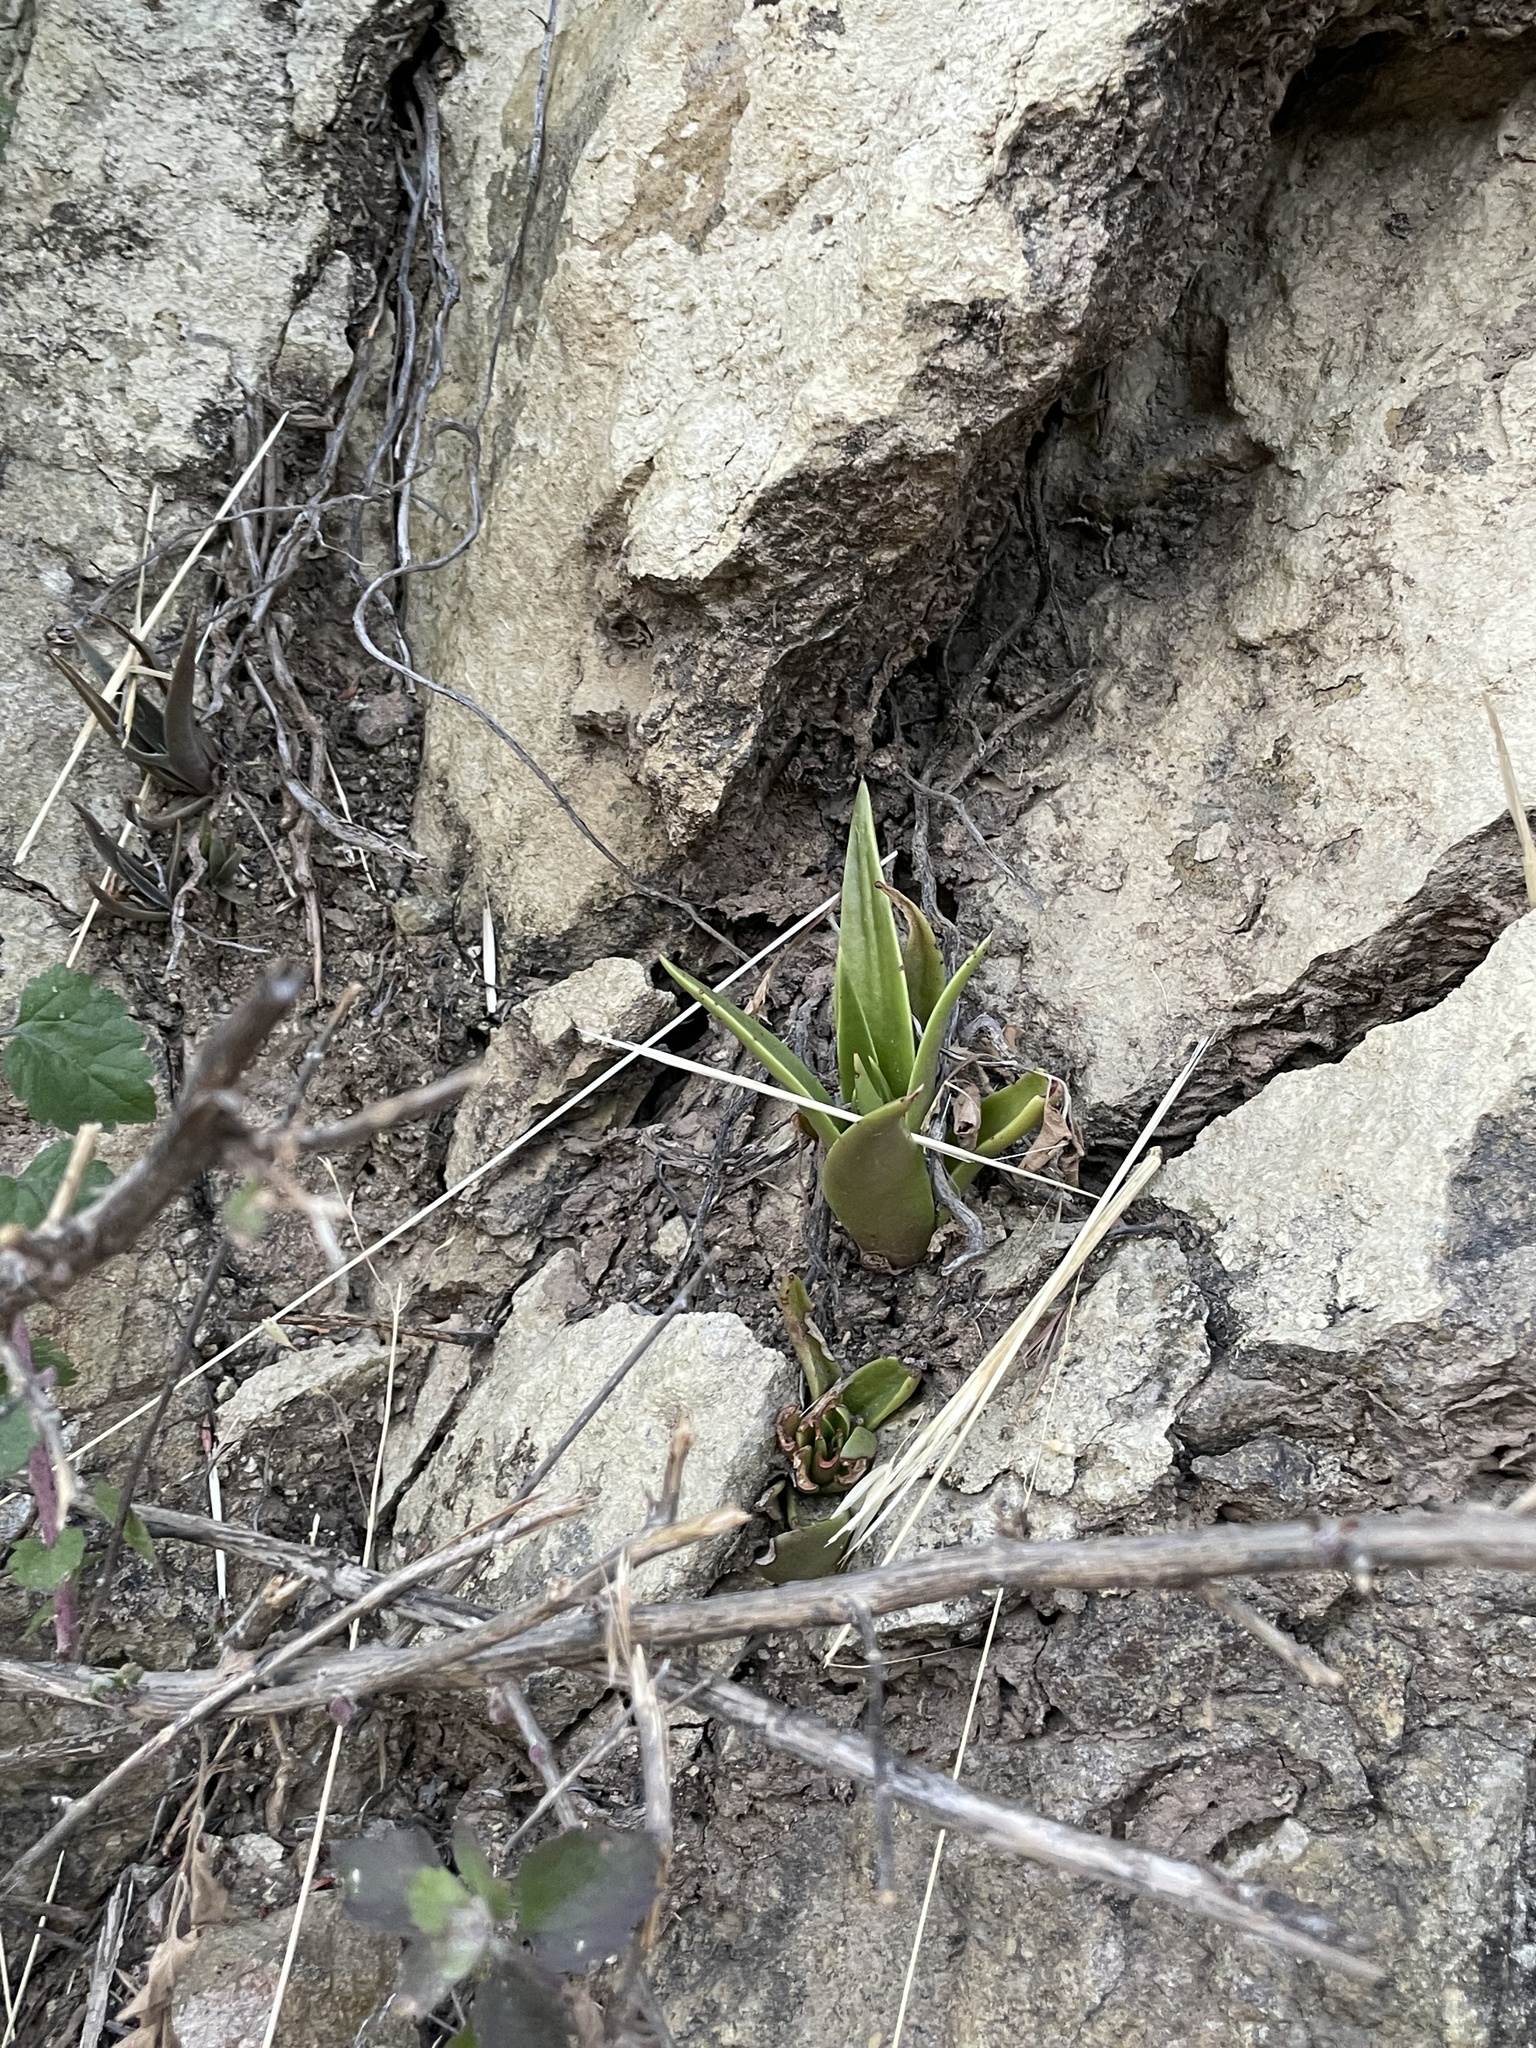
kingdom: Plantae
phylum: Tracheophyta
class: Magnoliopsida
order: Saxifragales
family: Crassulaceae
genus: Dudleya
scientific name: Dudleya lanceolata
